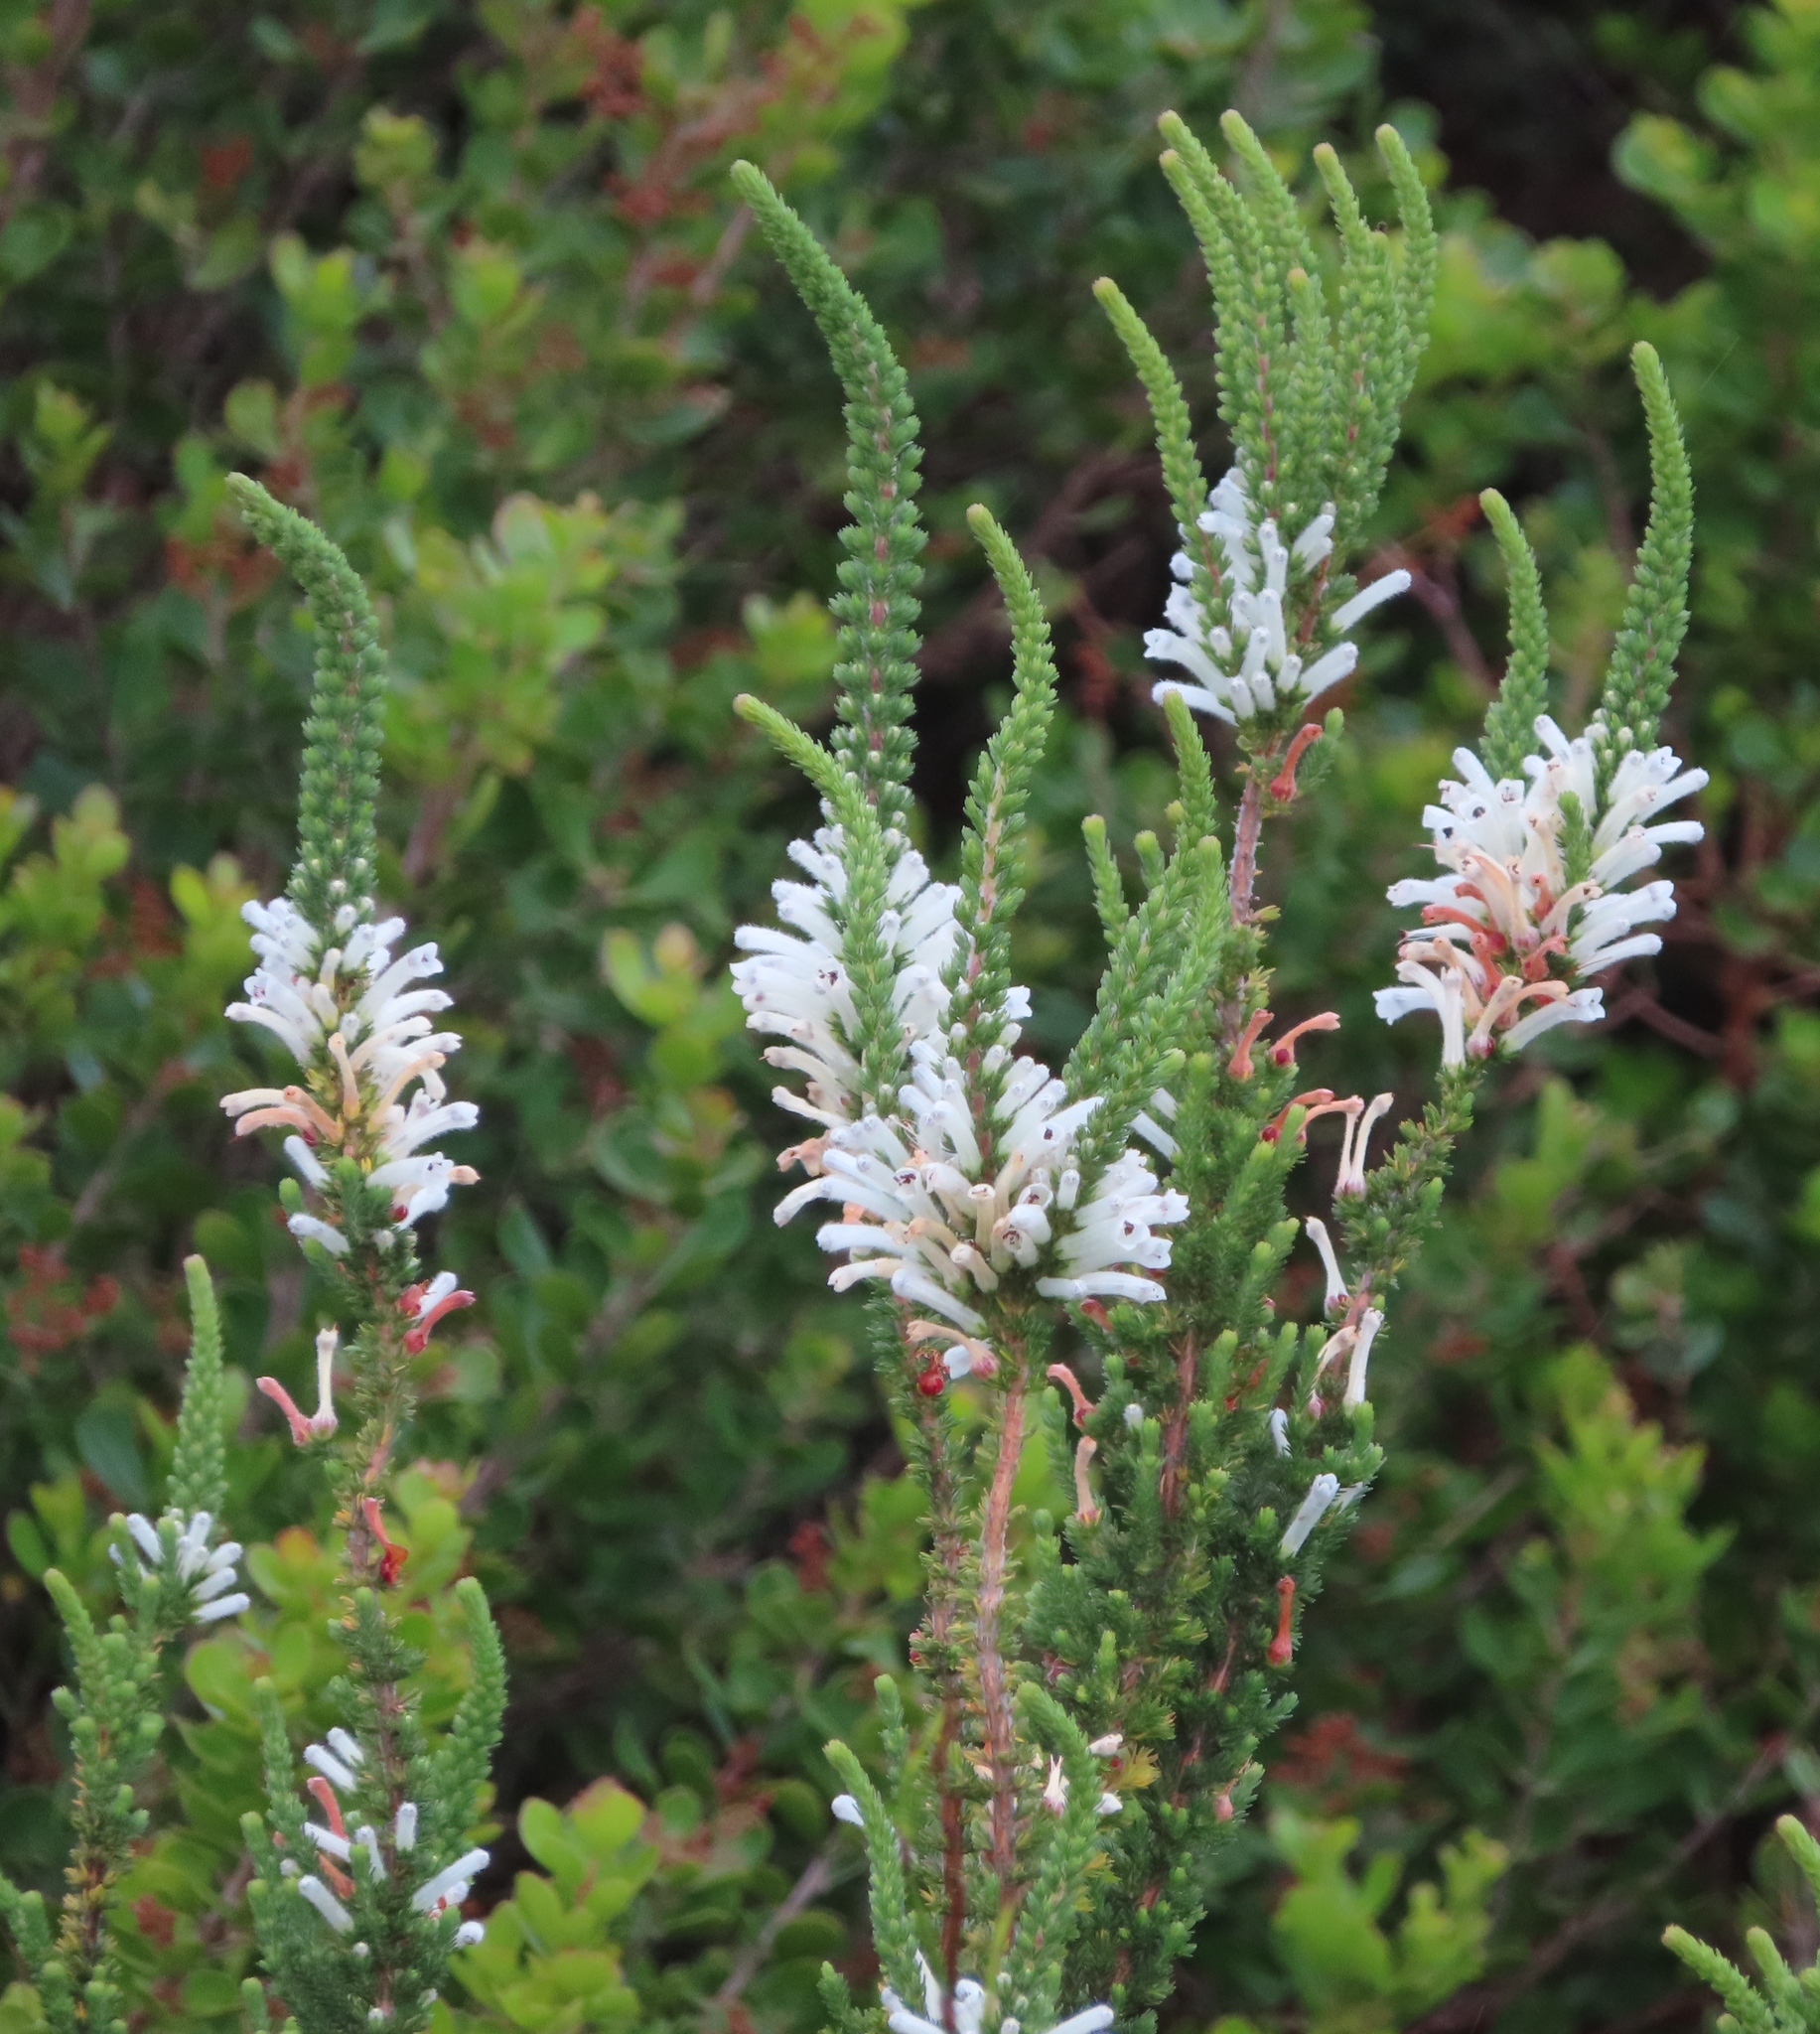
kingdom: Plantae
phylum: Tracheophyta
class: Magnoliopsida
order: Ericales
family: Ericaceae
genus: Erica
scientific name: Erica perspicua
